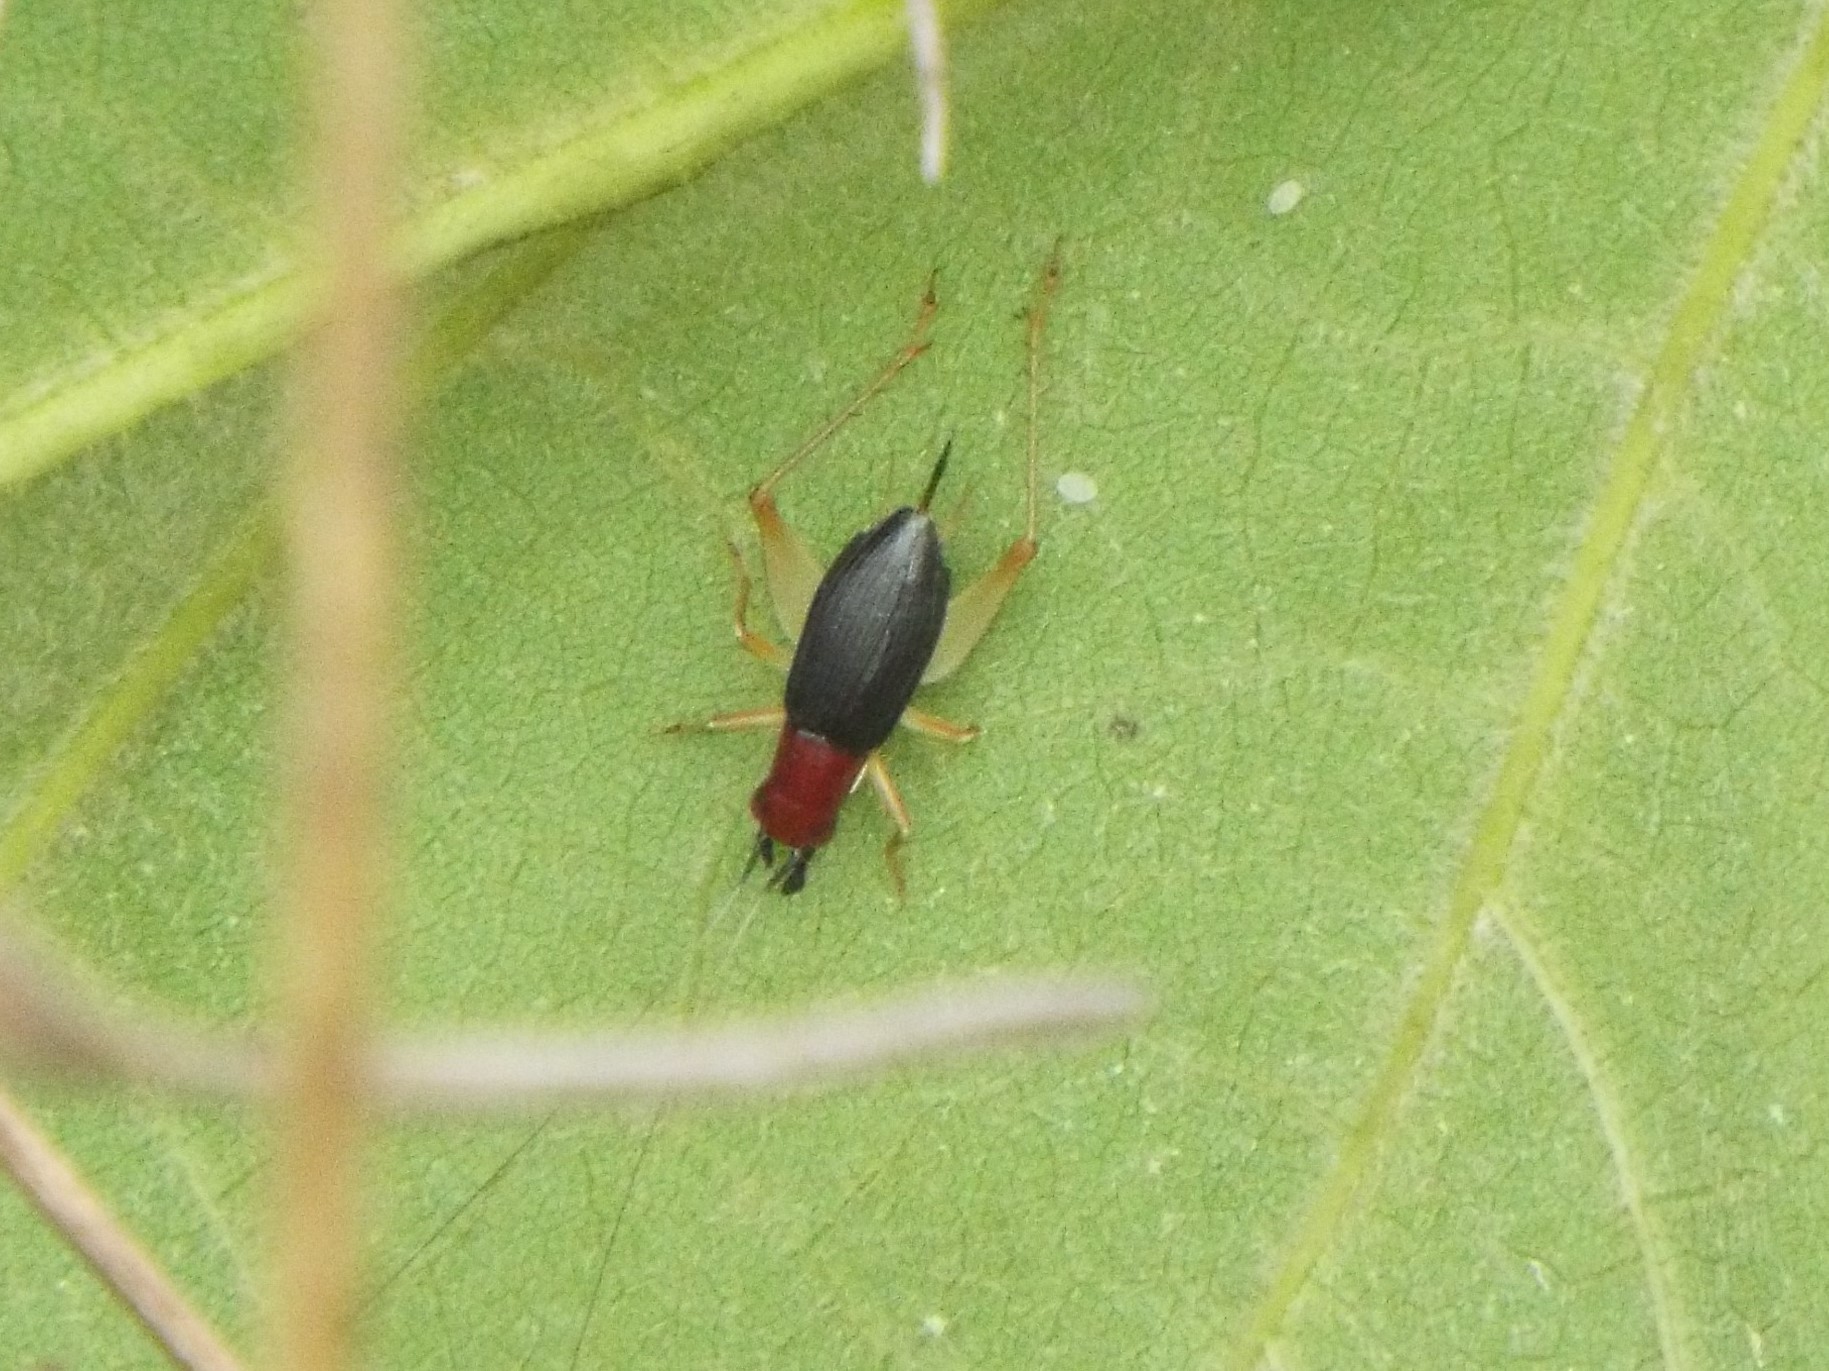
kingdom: Animalia
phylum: Arthropoda
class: Insecta
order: Orthoptera
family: Trigonidiidae
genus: Phyllopalpus
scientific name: Phyllopalpus pulchellus
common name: Handsome trig
